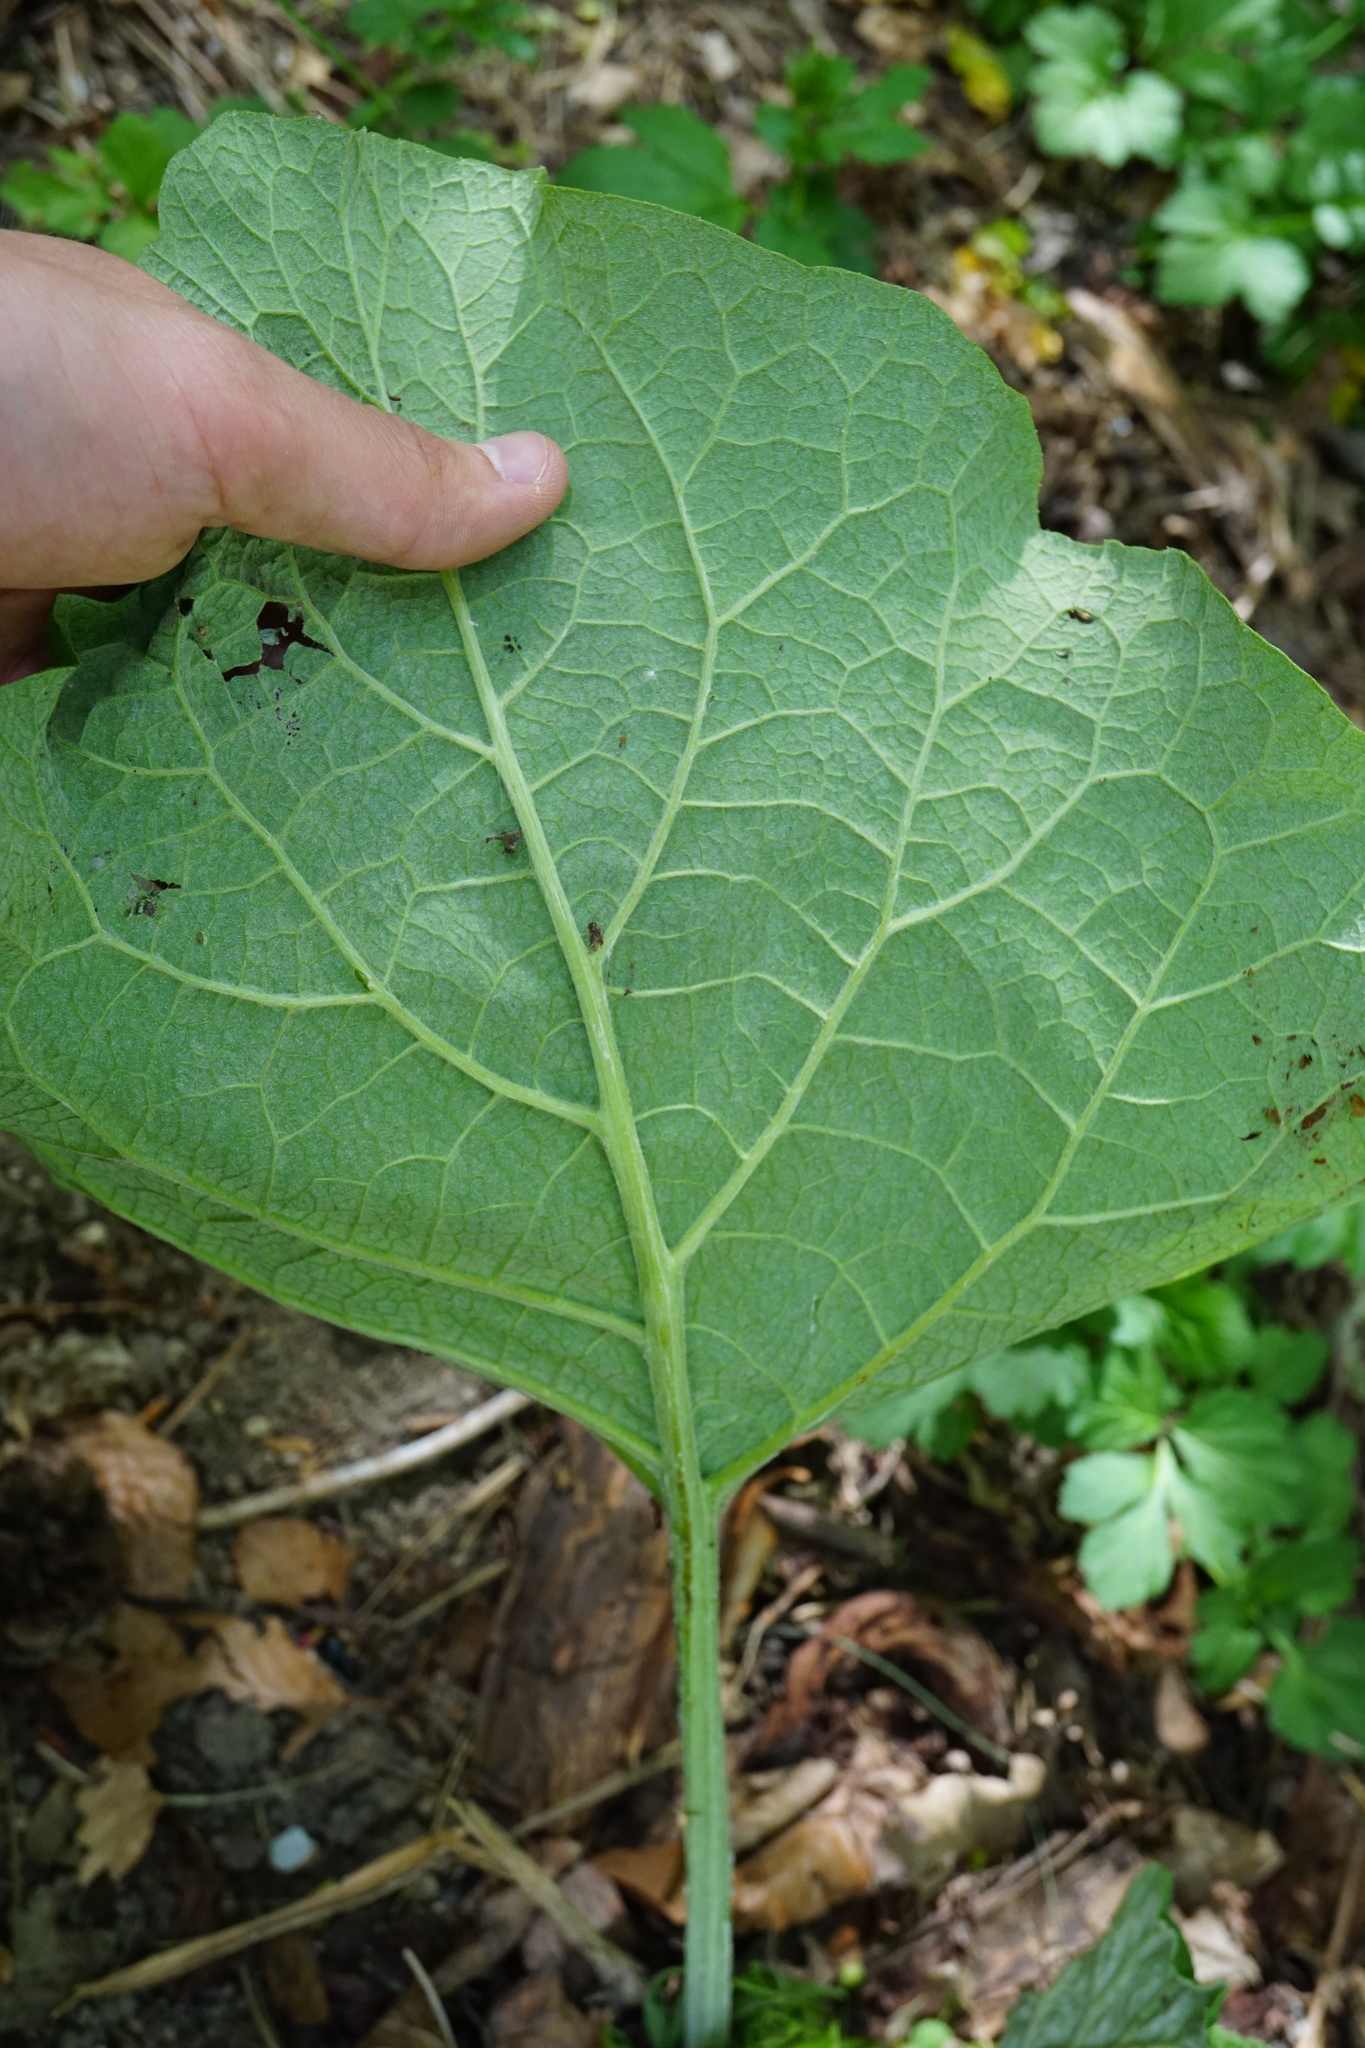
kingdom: Plantae
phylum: Tracheophyta
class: Magnoliopsida
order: Asterales
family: Asteraceae
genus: Arctium
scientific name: Arctium
